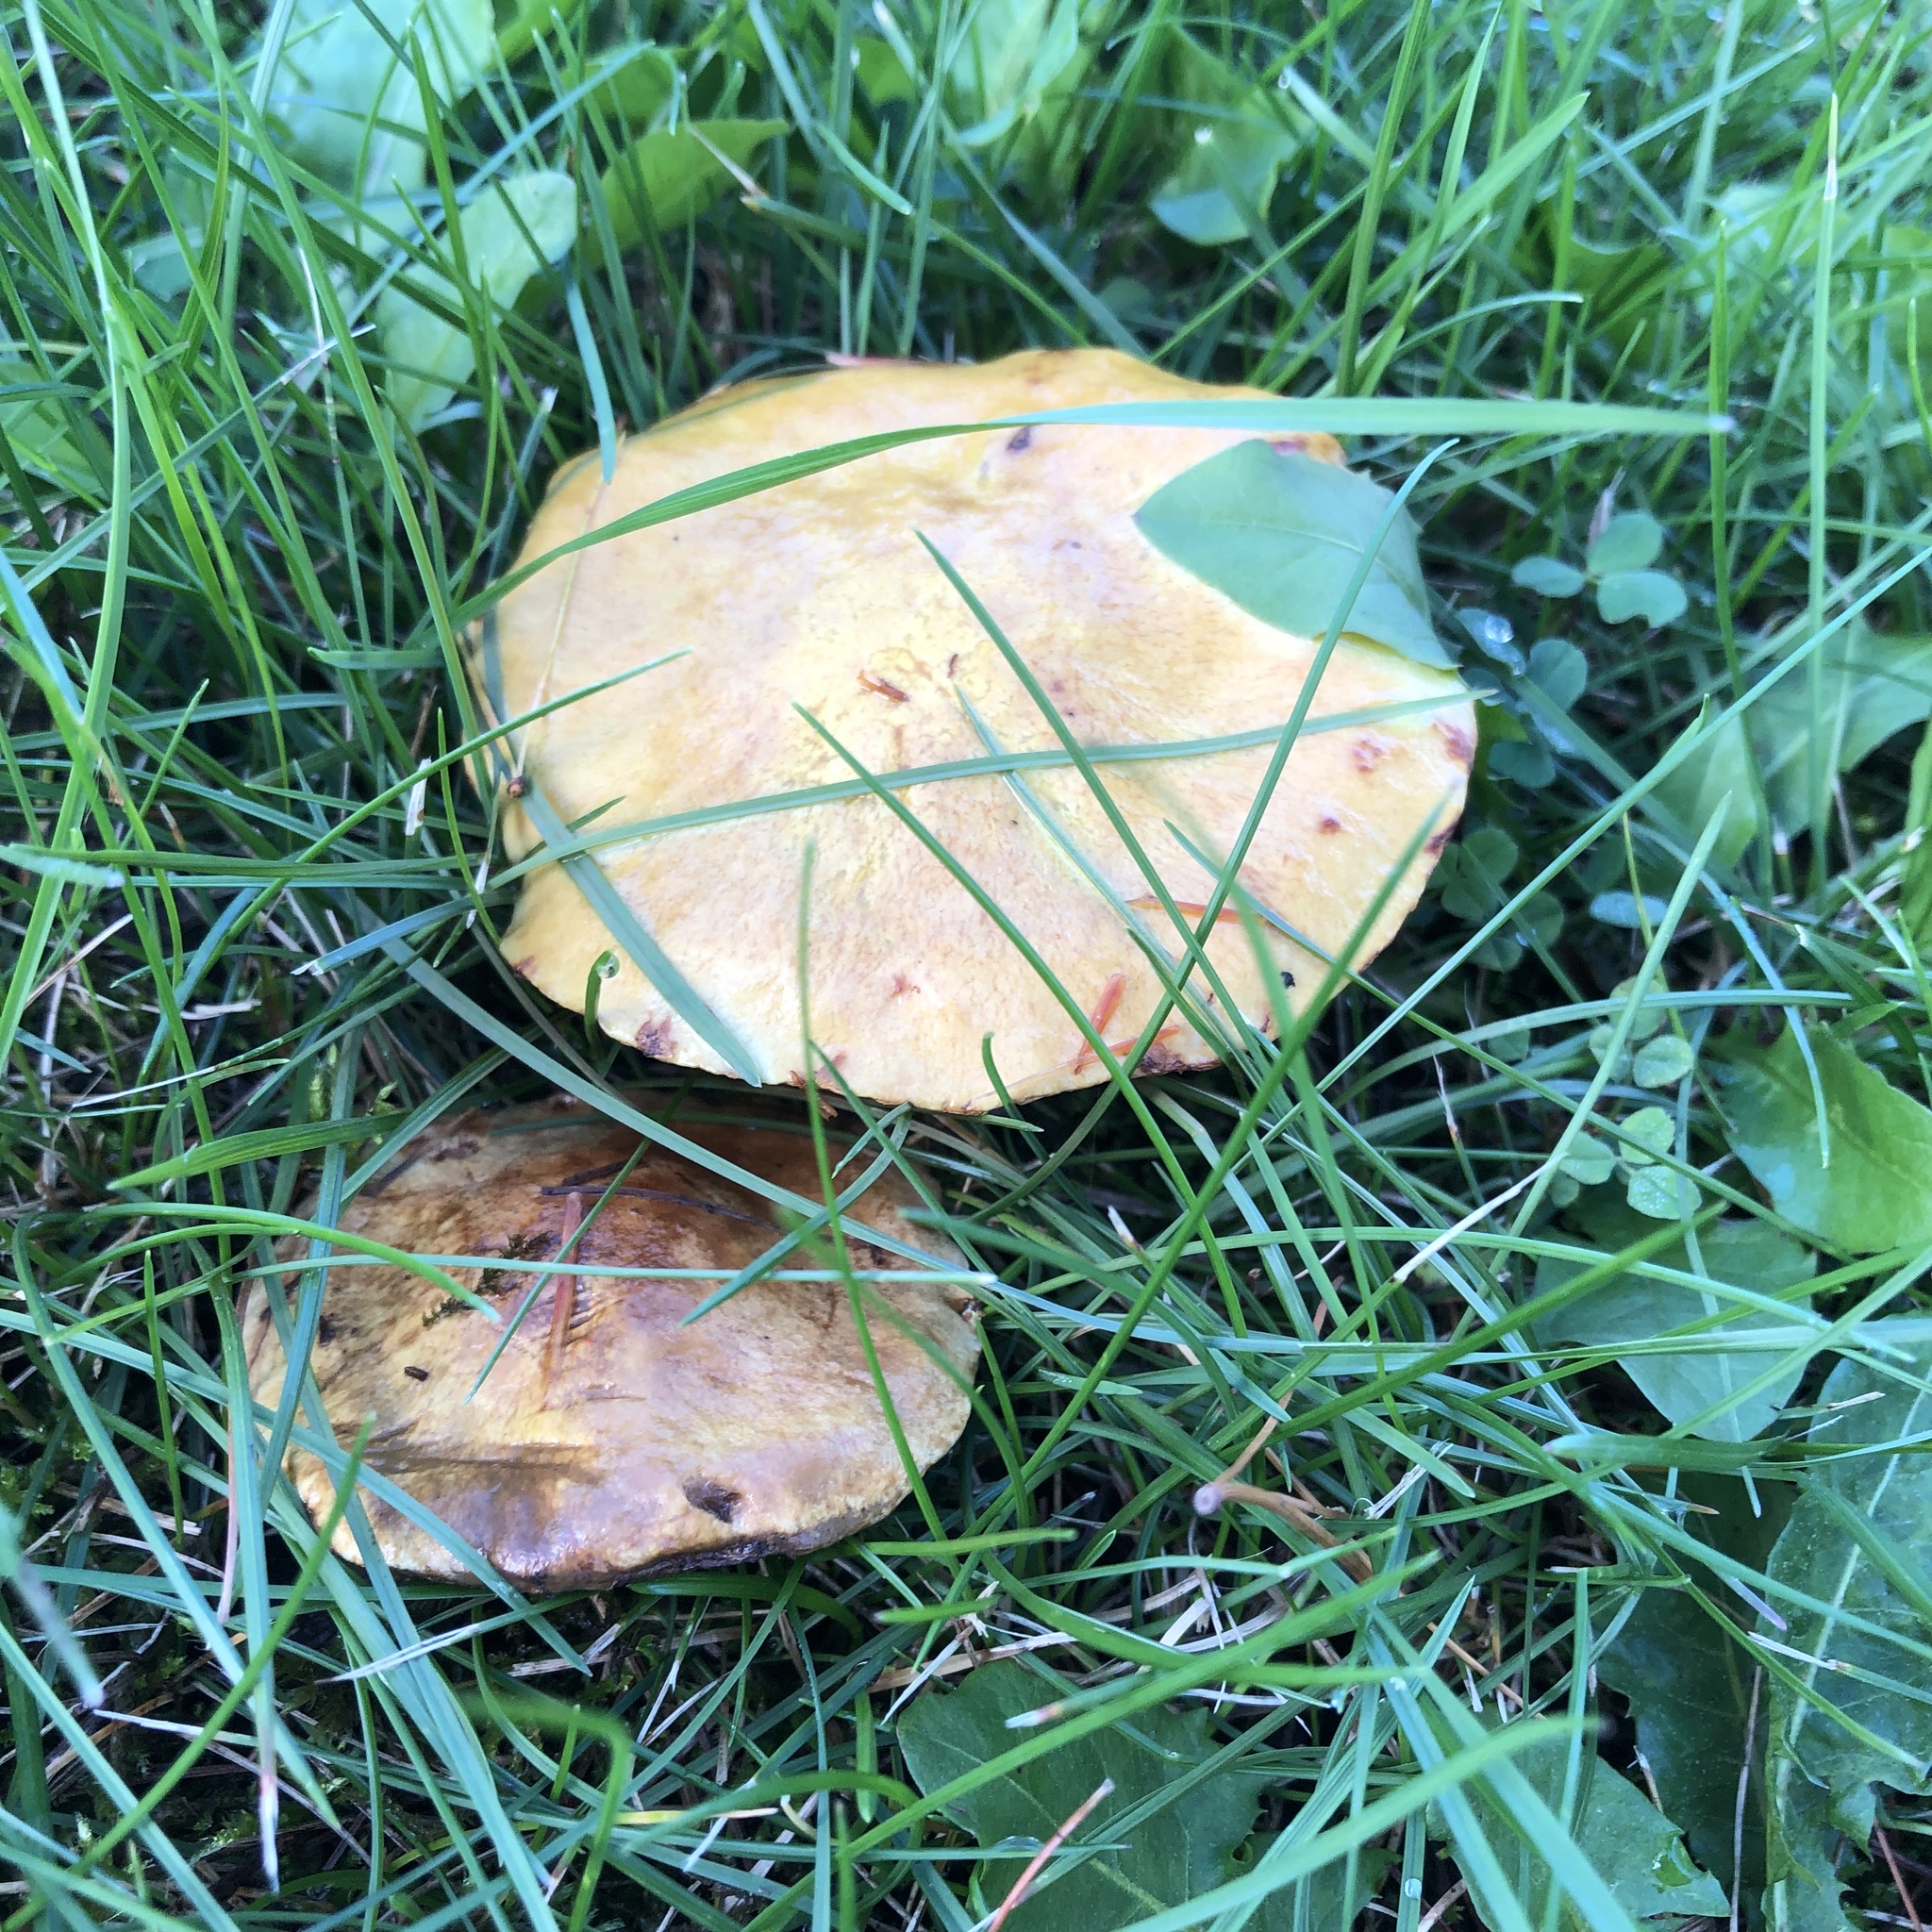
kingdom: Fungi
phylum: Basidiomycota
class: Agaricomycetes
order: Boletales
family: Suillaceae
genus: Suillus
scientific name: Suillus americanus
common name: Chicken fat mushroom
